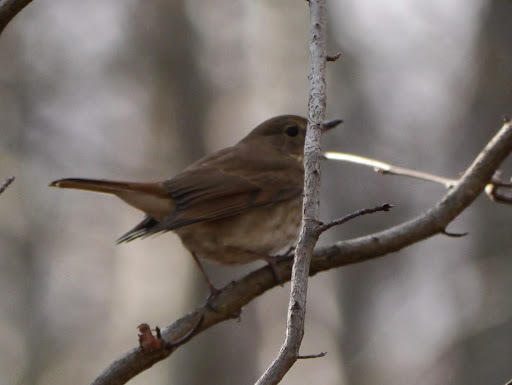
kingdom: Animalia
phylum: Chordata
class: Aves
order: Passeriformes
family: Turdidae
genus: Catharus
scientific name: Catharus guttatus
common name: Hermit thrush
